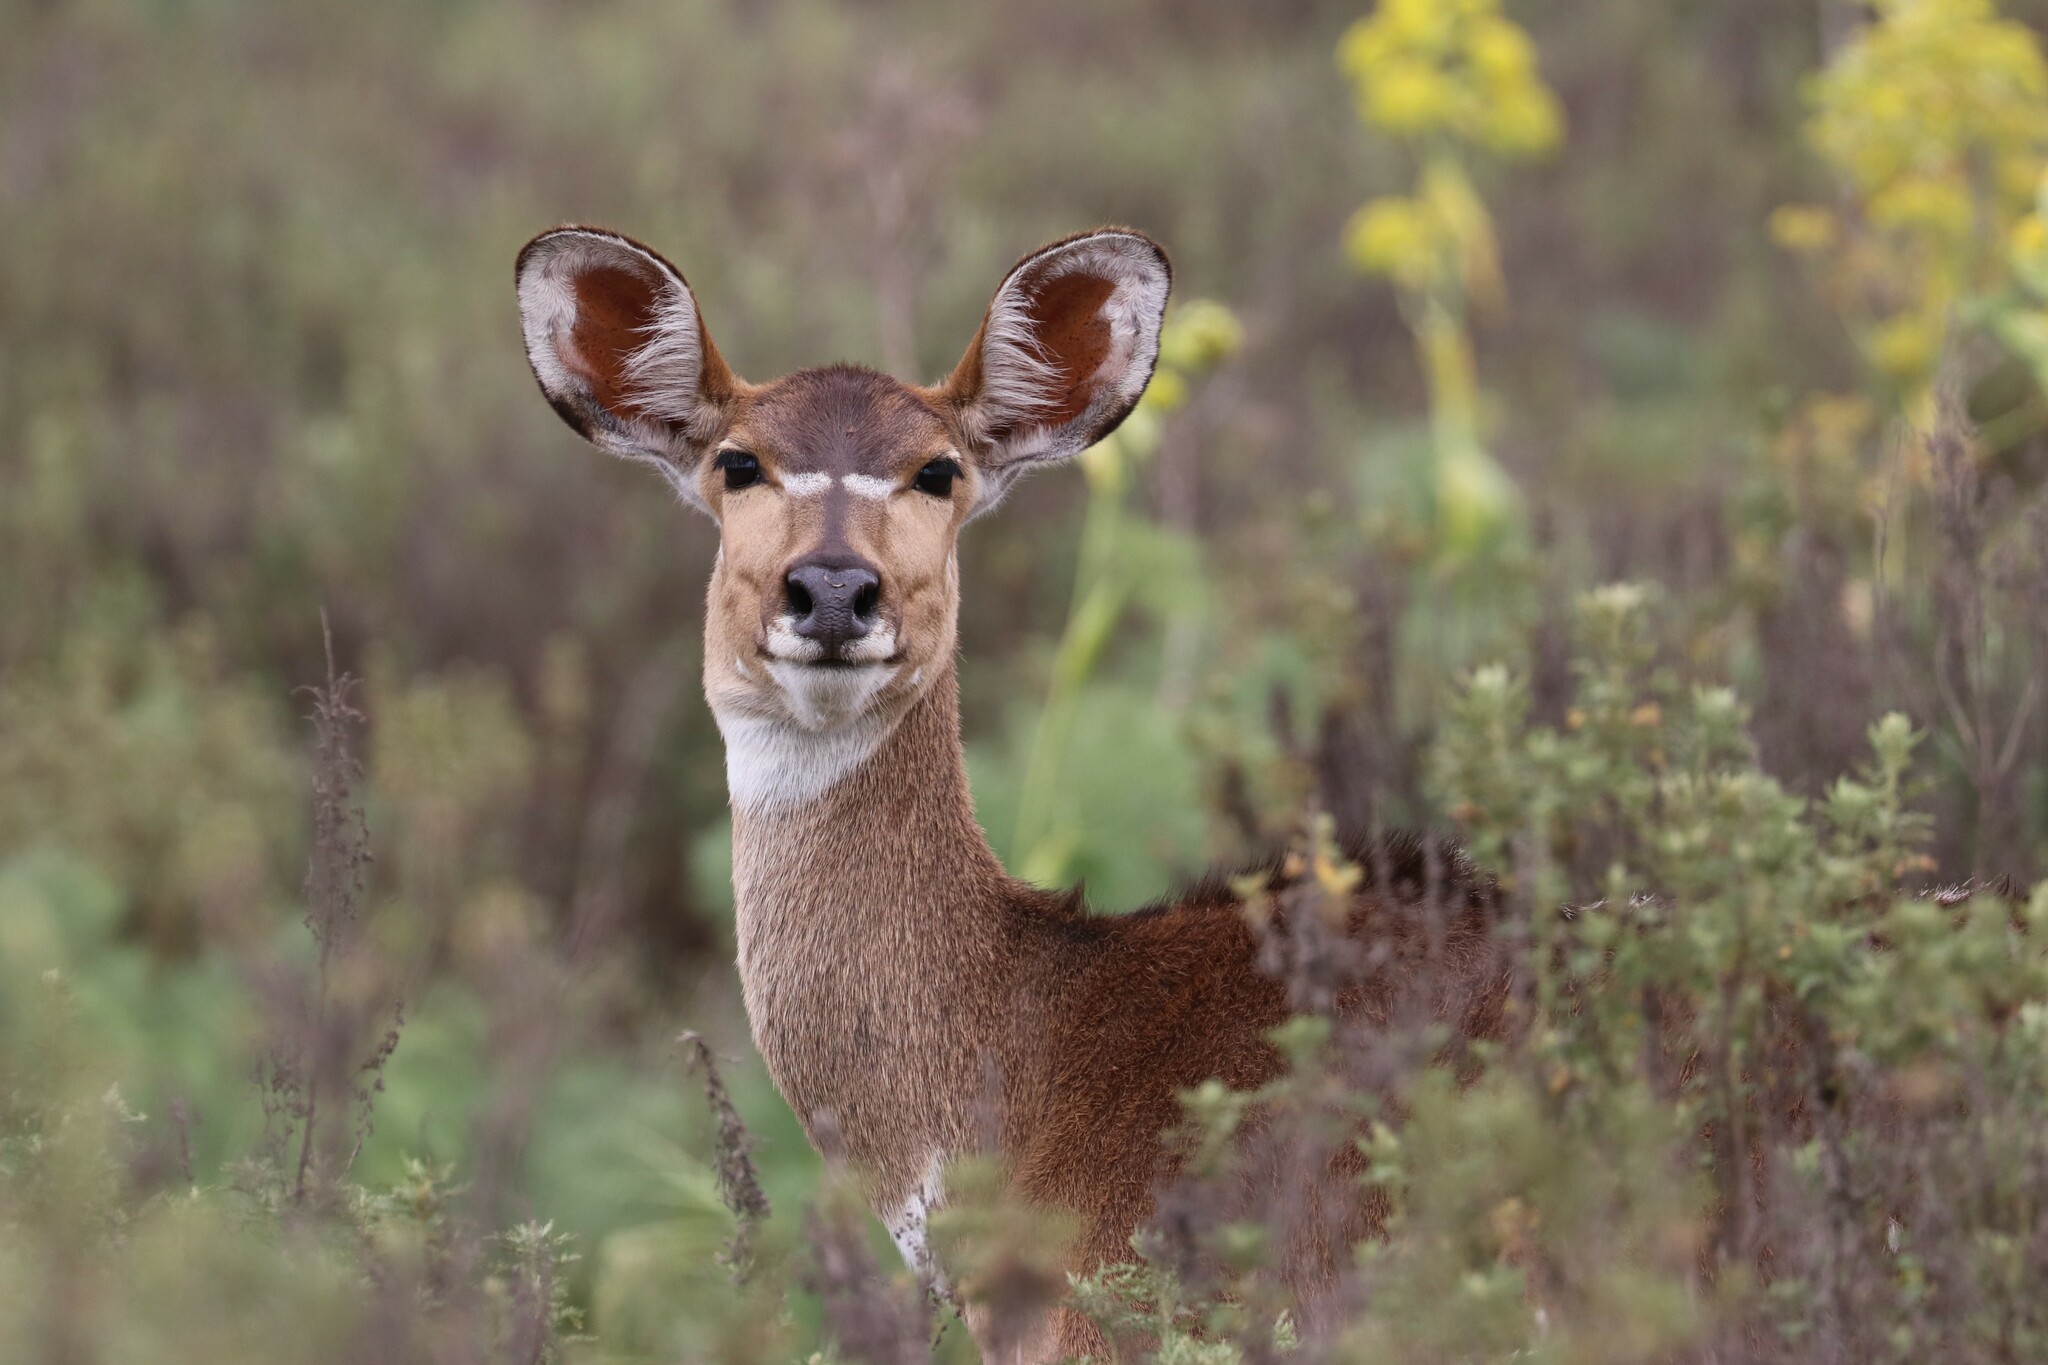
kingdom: Animalia
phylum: Chordata
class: Mammalia
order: Artiodactyla
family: Bovidae
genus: Tragelaphus
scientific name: Tragelaphus buxtoni
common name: Mountain nyala
